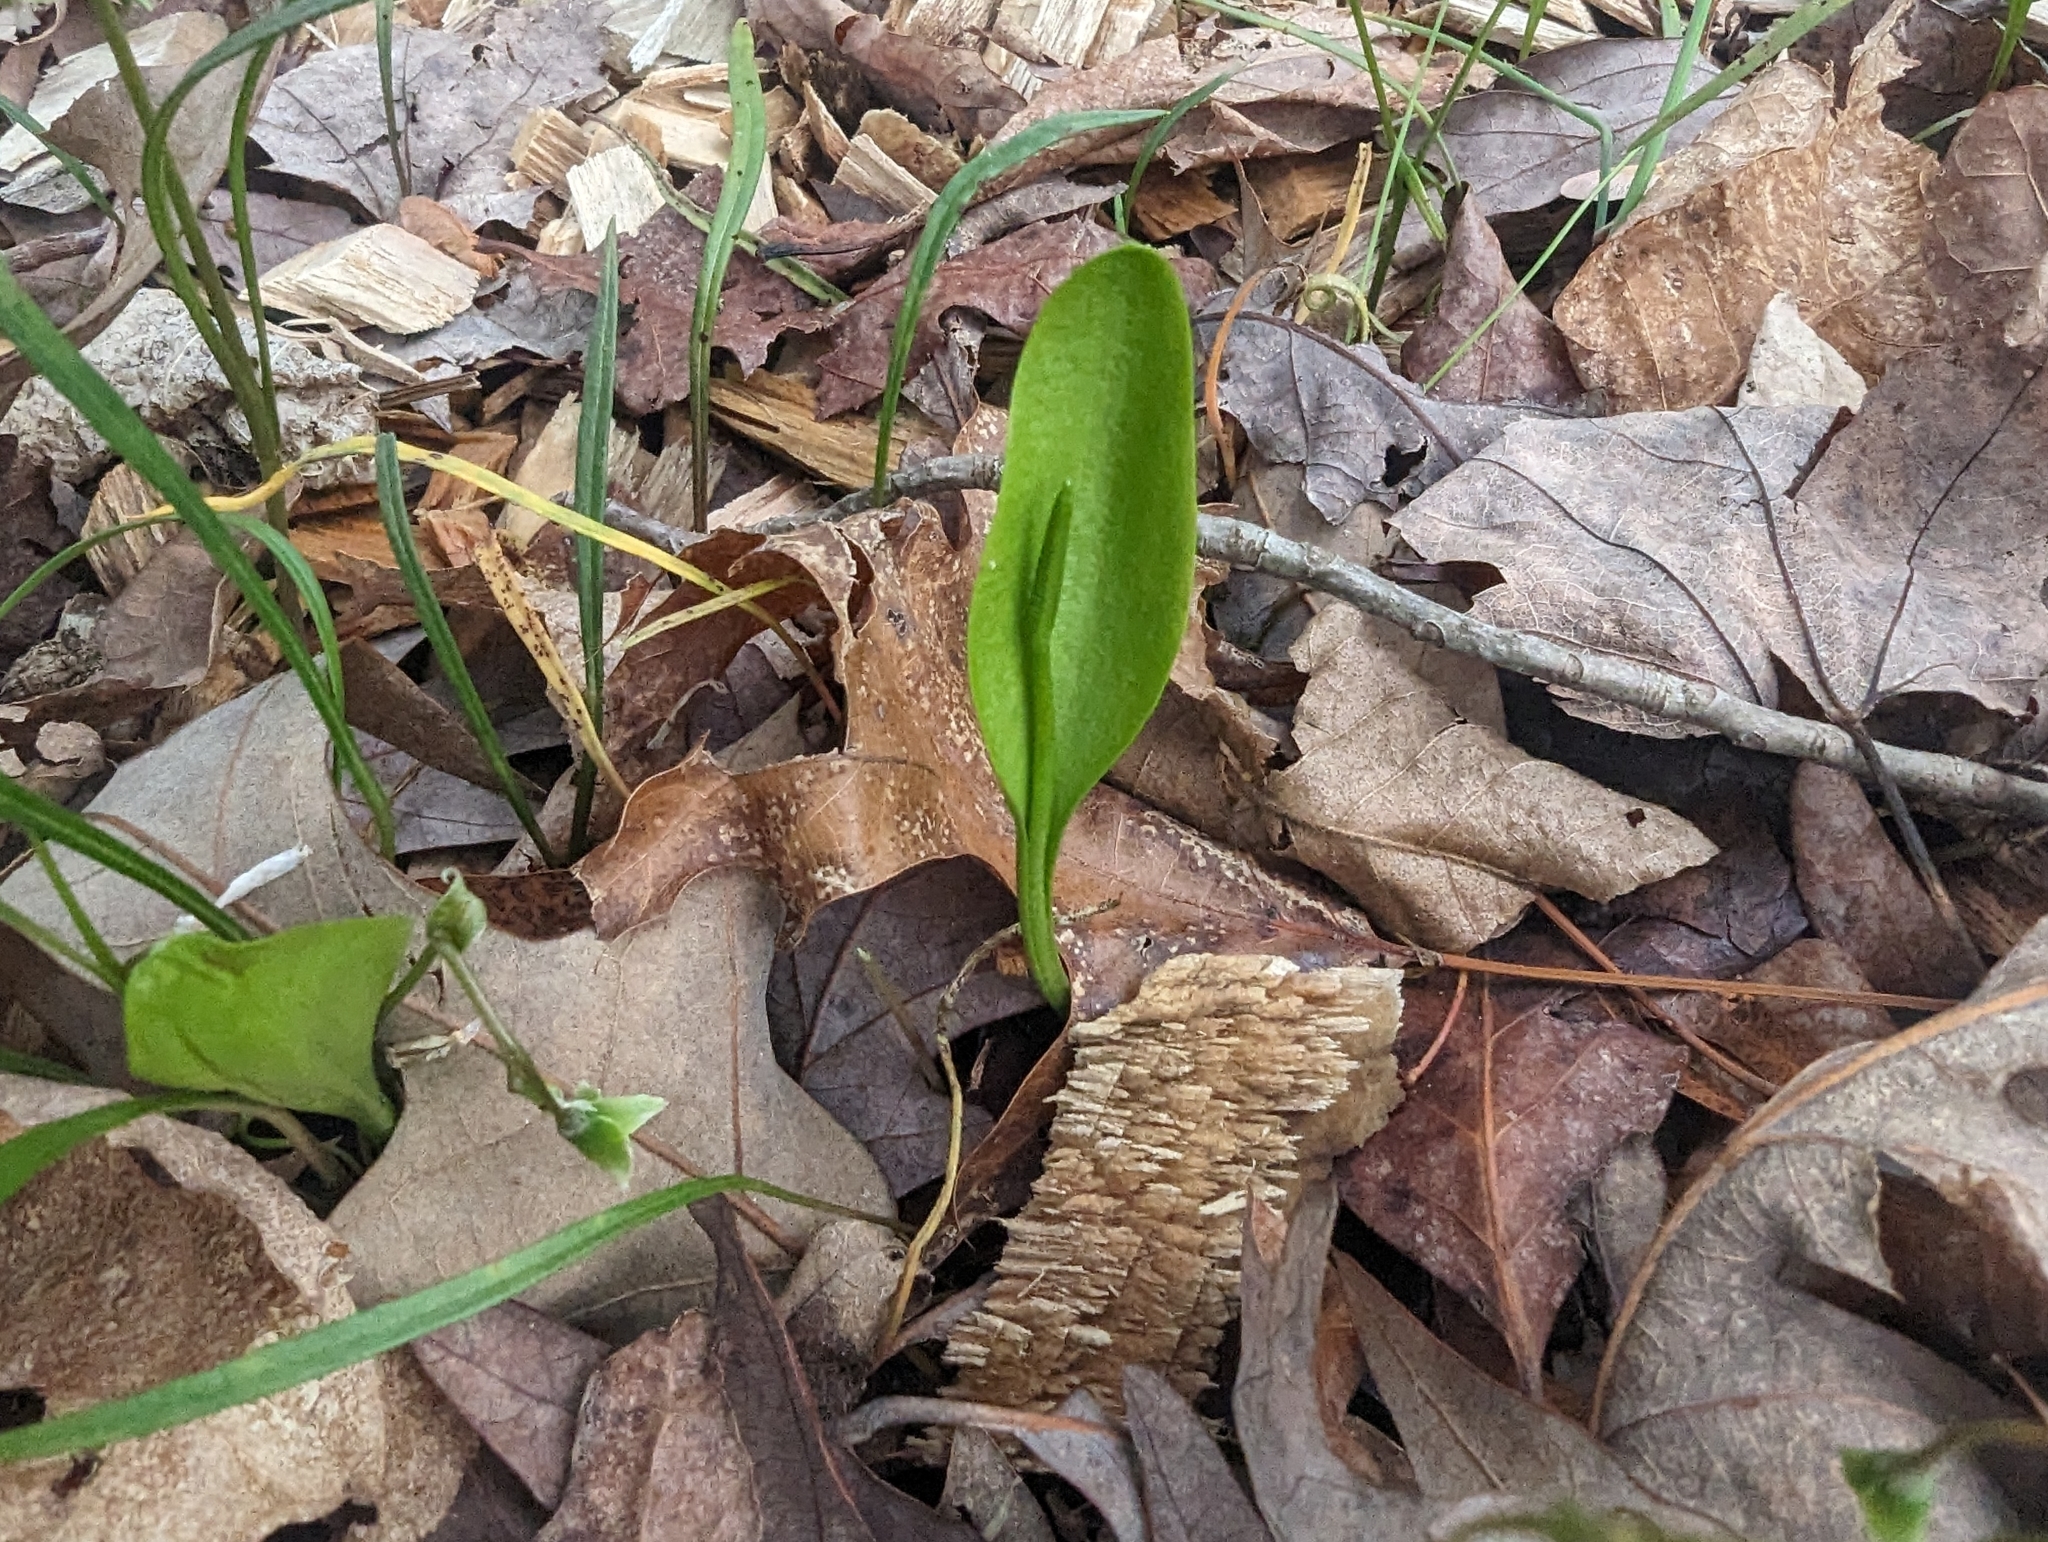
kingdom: Plantae
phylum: Tracheophyta
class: Polypodiopsida
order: Ophioglossales
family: Ophioglossaceae
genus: Ophioglossum
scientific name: Ophioglossum vulgatum
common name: Adder's-tongue
